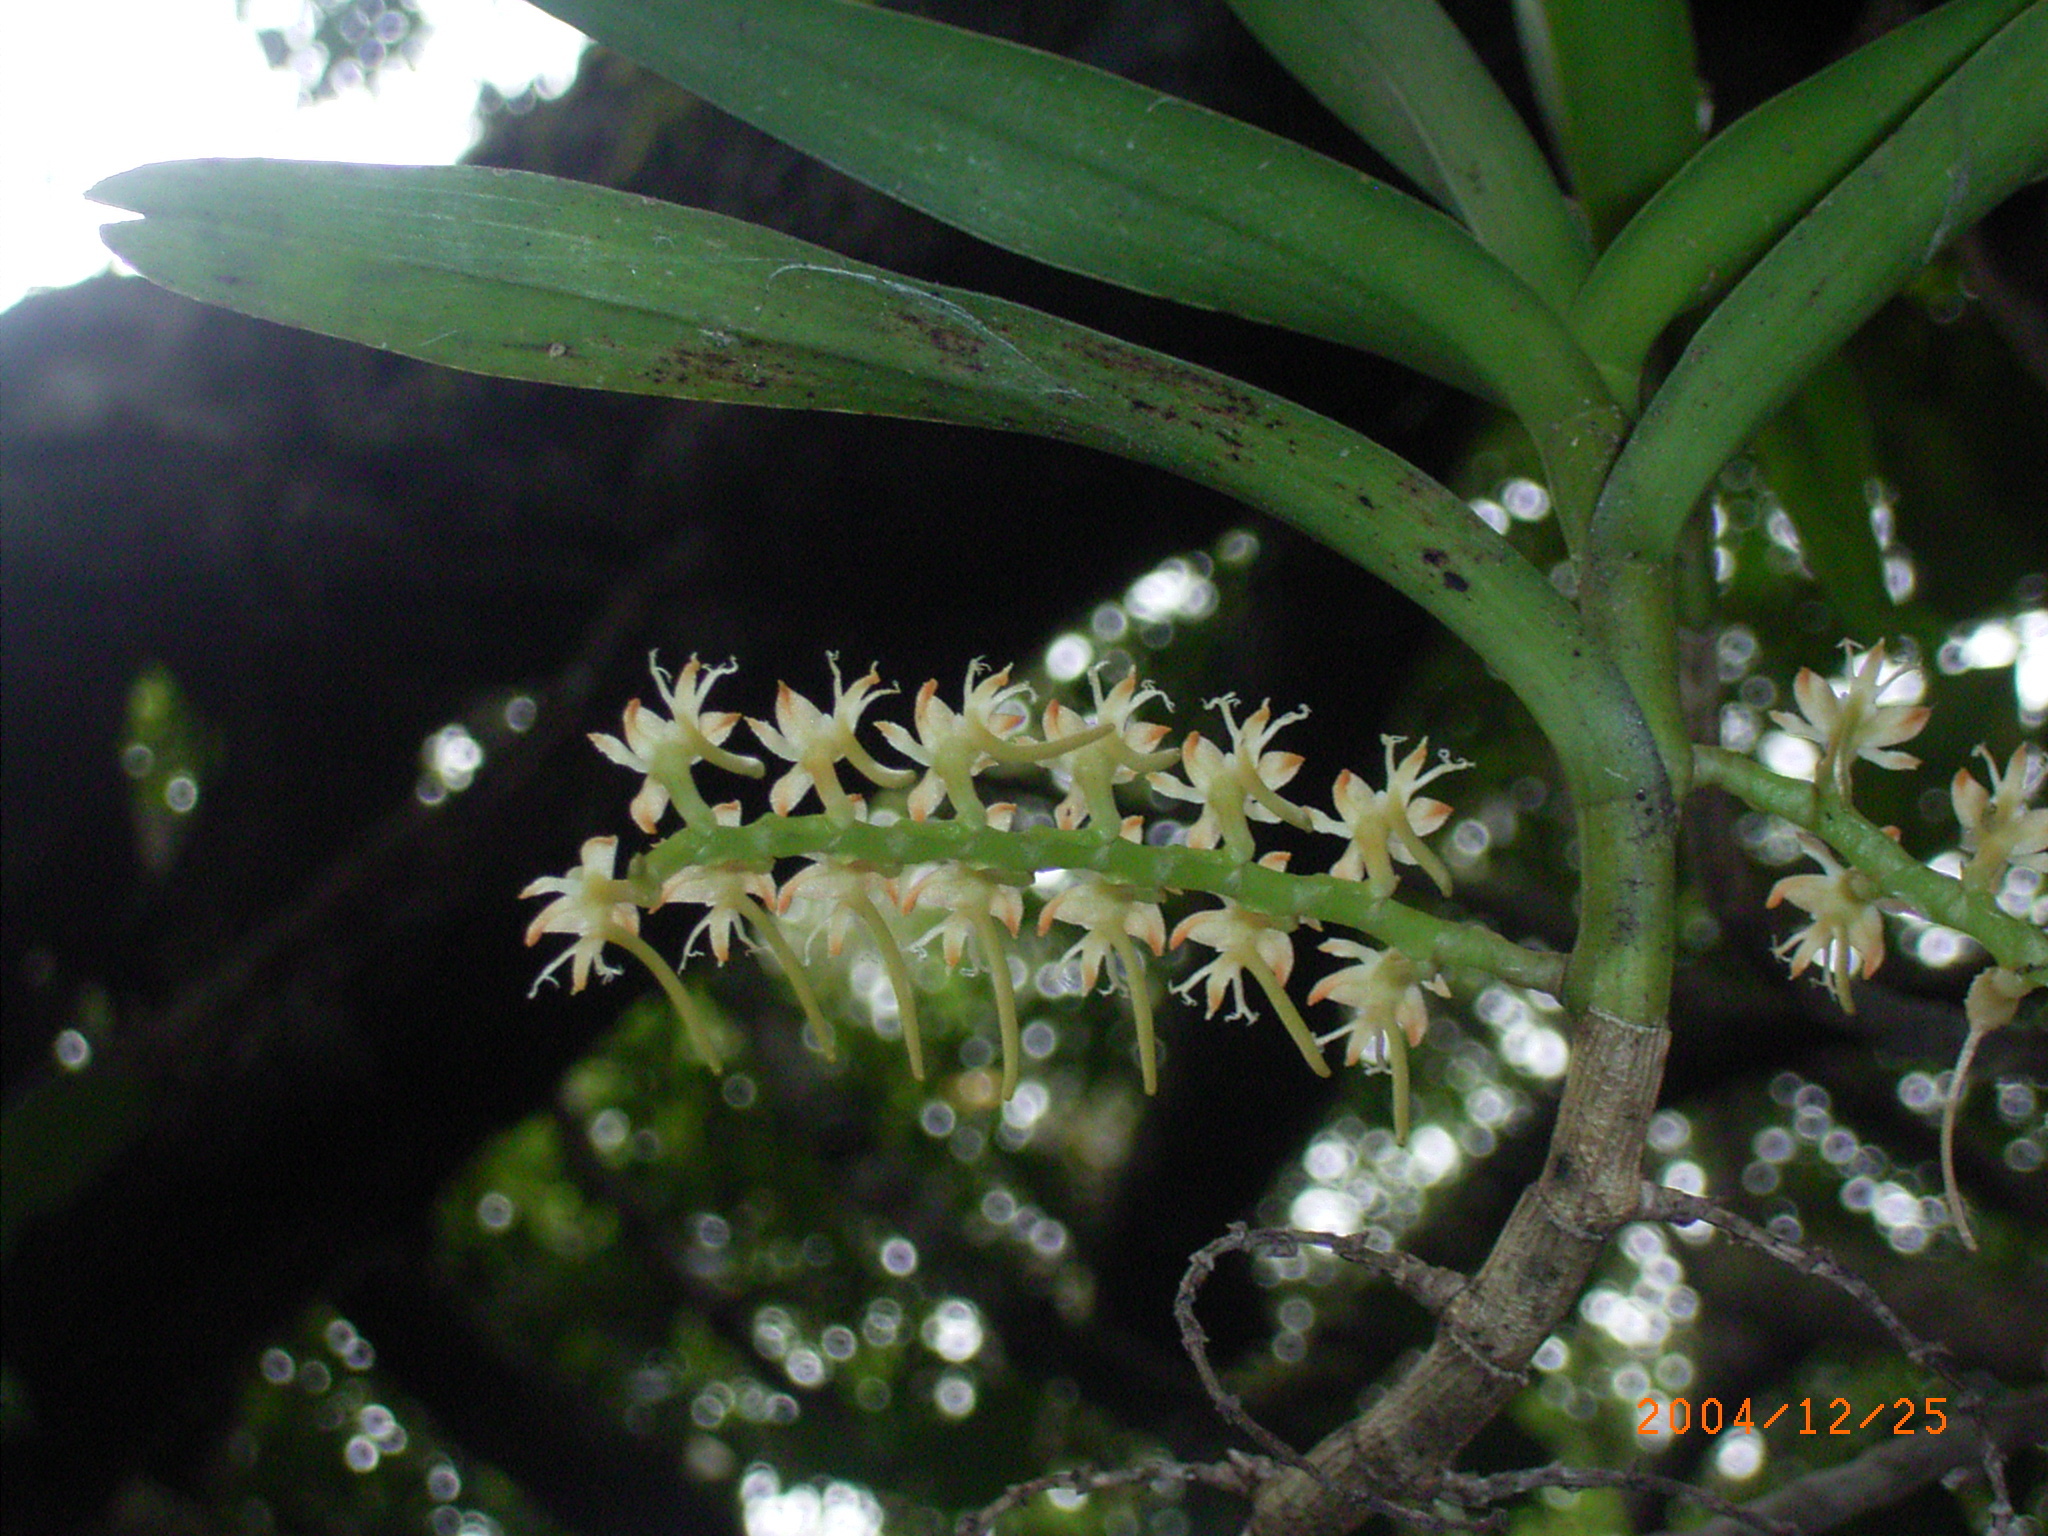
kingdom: Plantae
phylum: Tracheophyta
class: Liliopsida
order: Asparagales
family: Orchidaceae
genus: Tridactyle
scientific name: Tridactyle bicaudata
